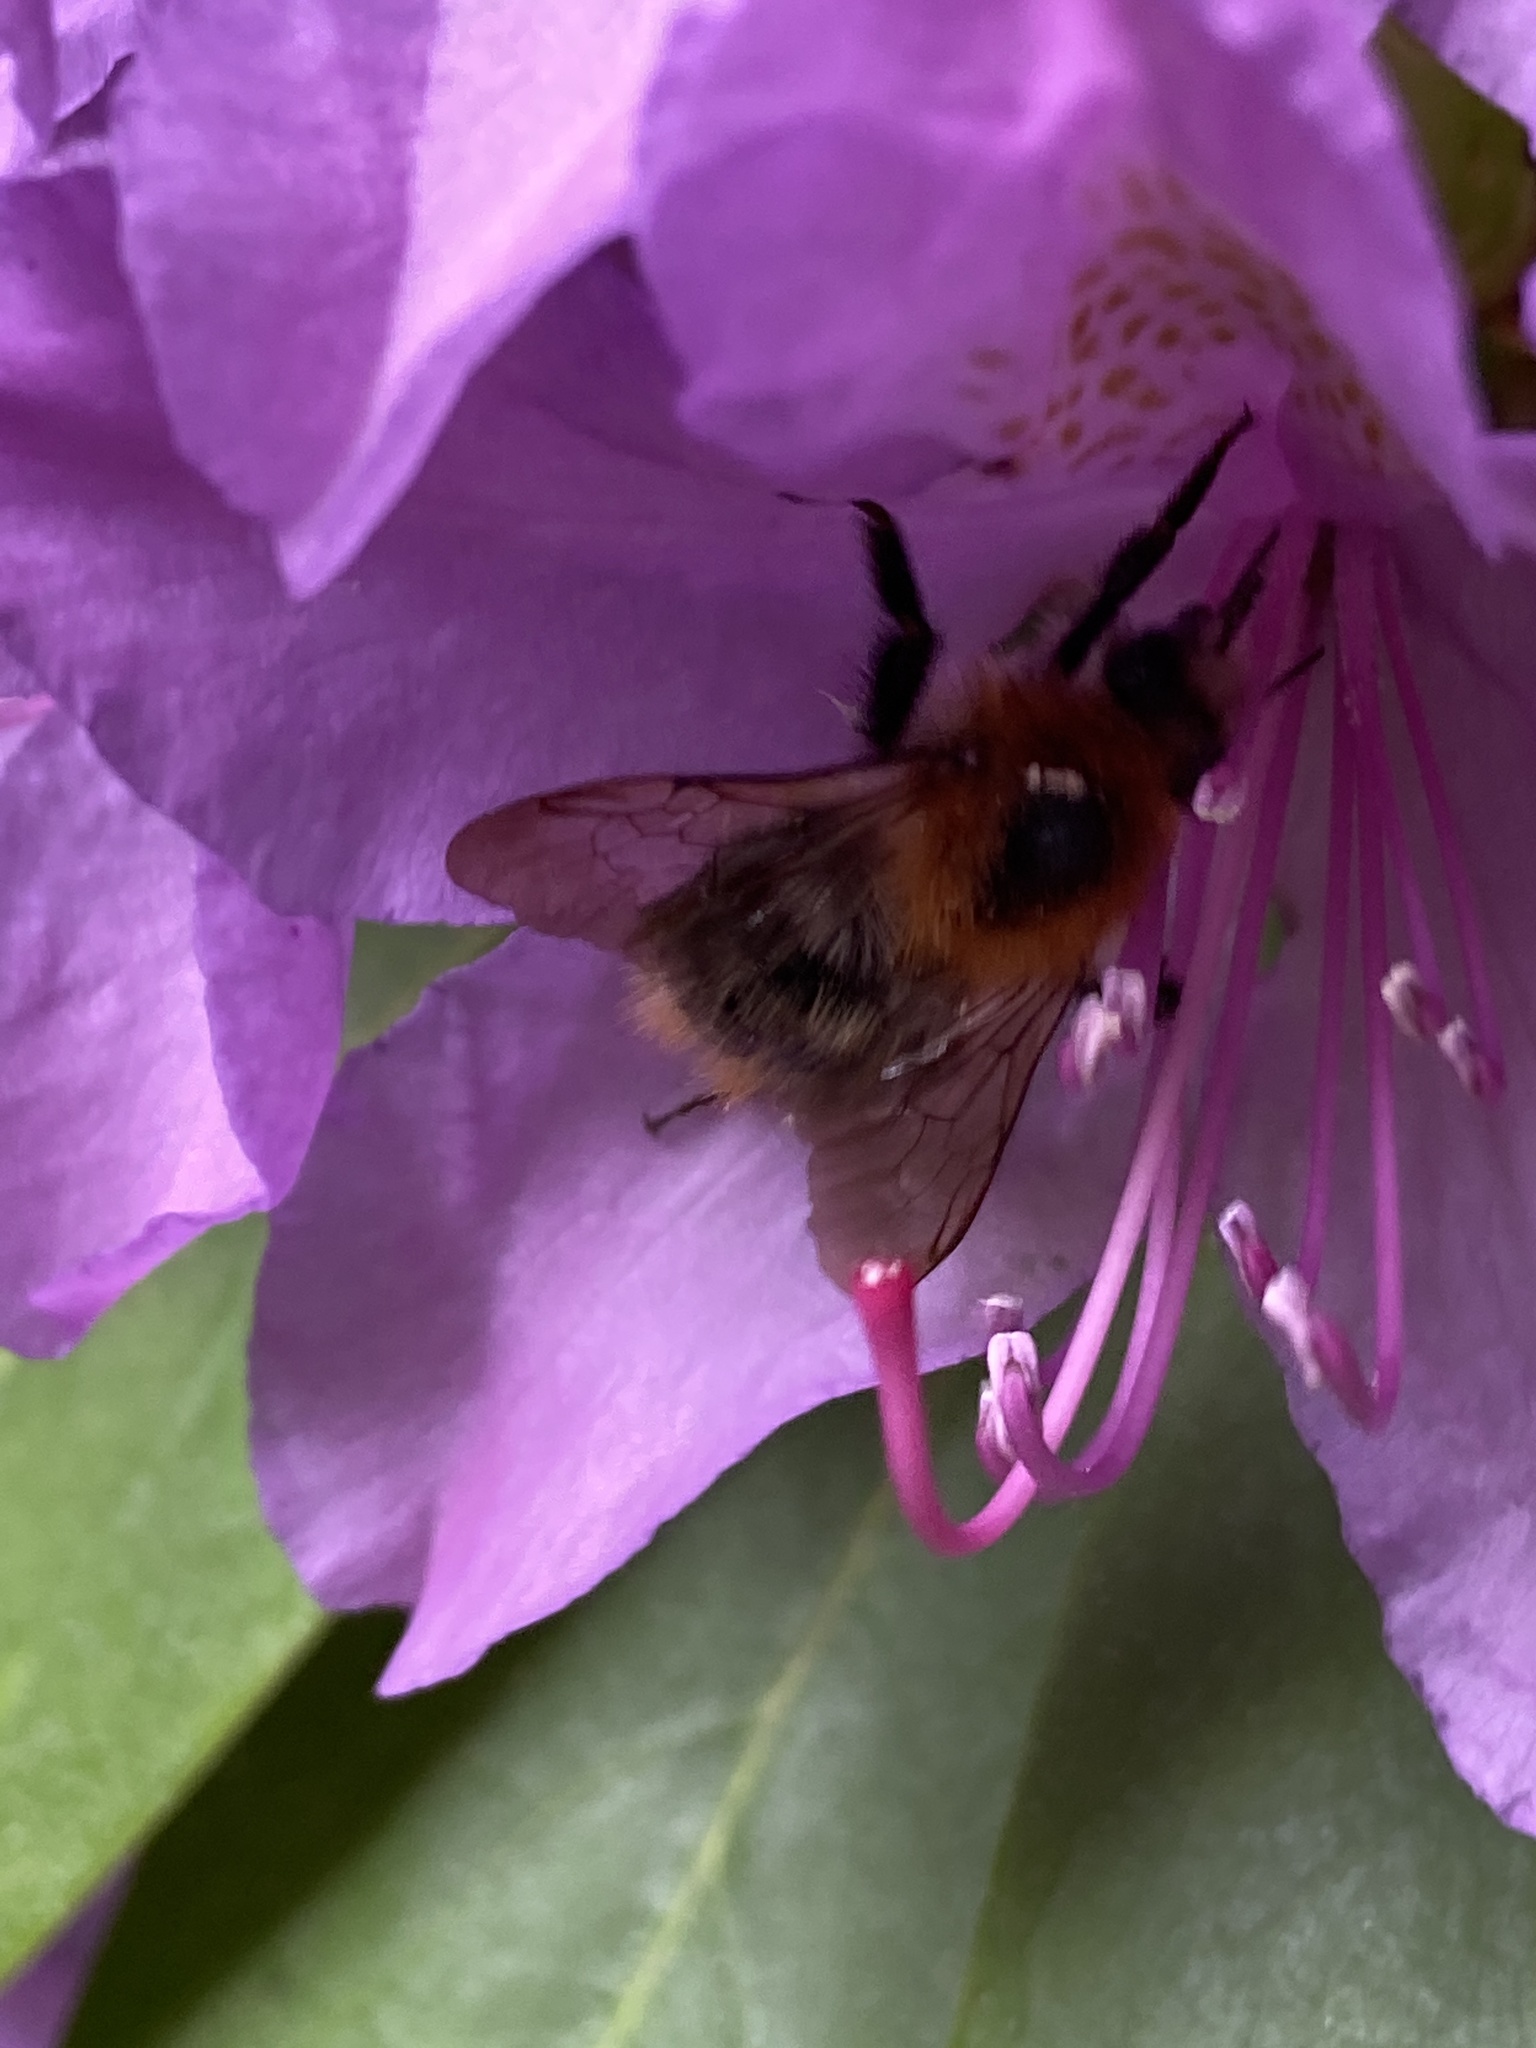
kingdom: Animalia
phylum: Arthropoda
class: Insecta
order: Hymenoptera
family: Apidae
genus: Bombus
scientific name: Bombus pascuorum
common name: Common carder bee
